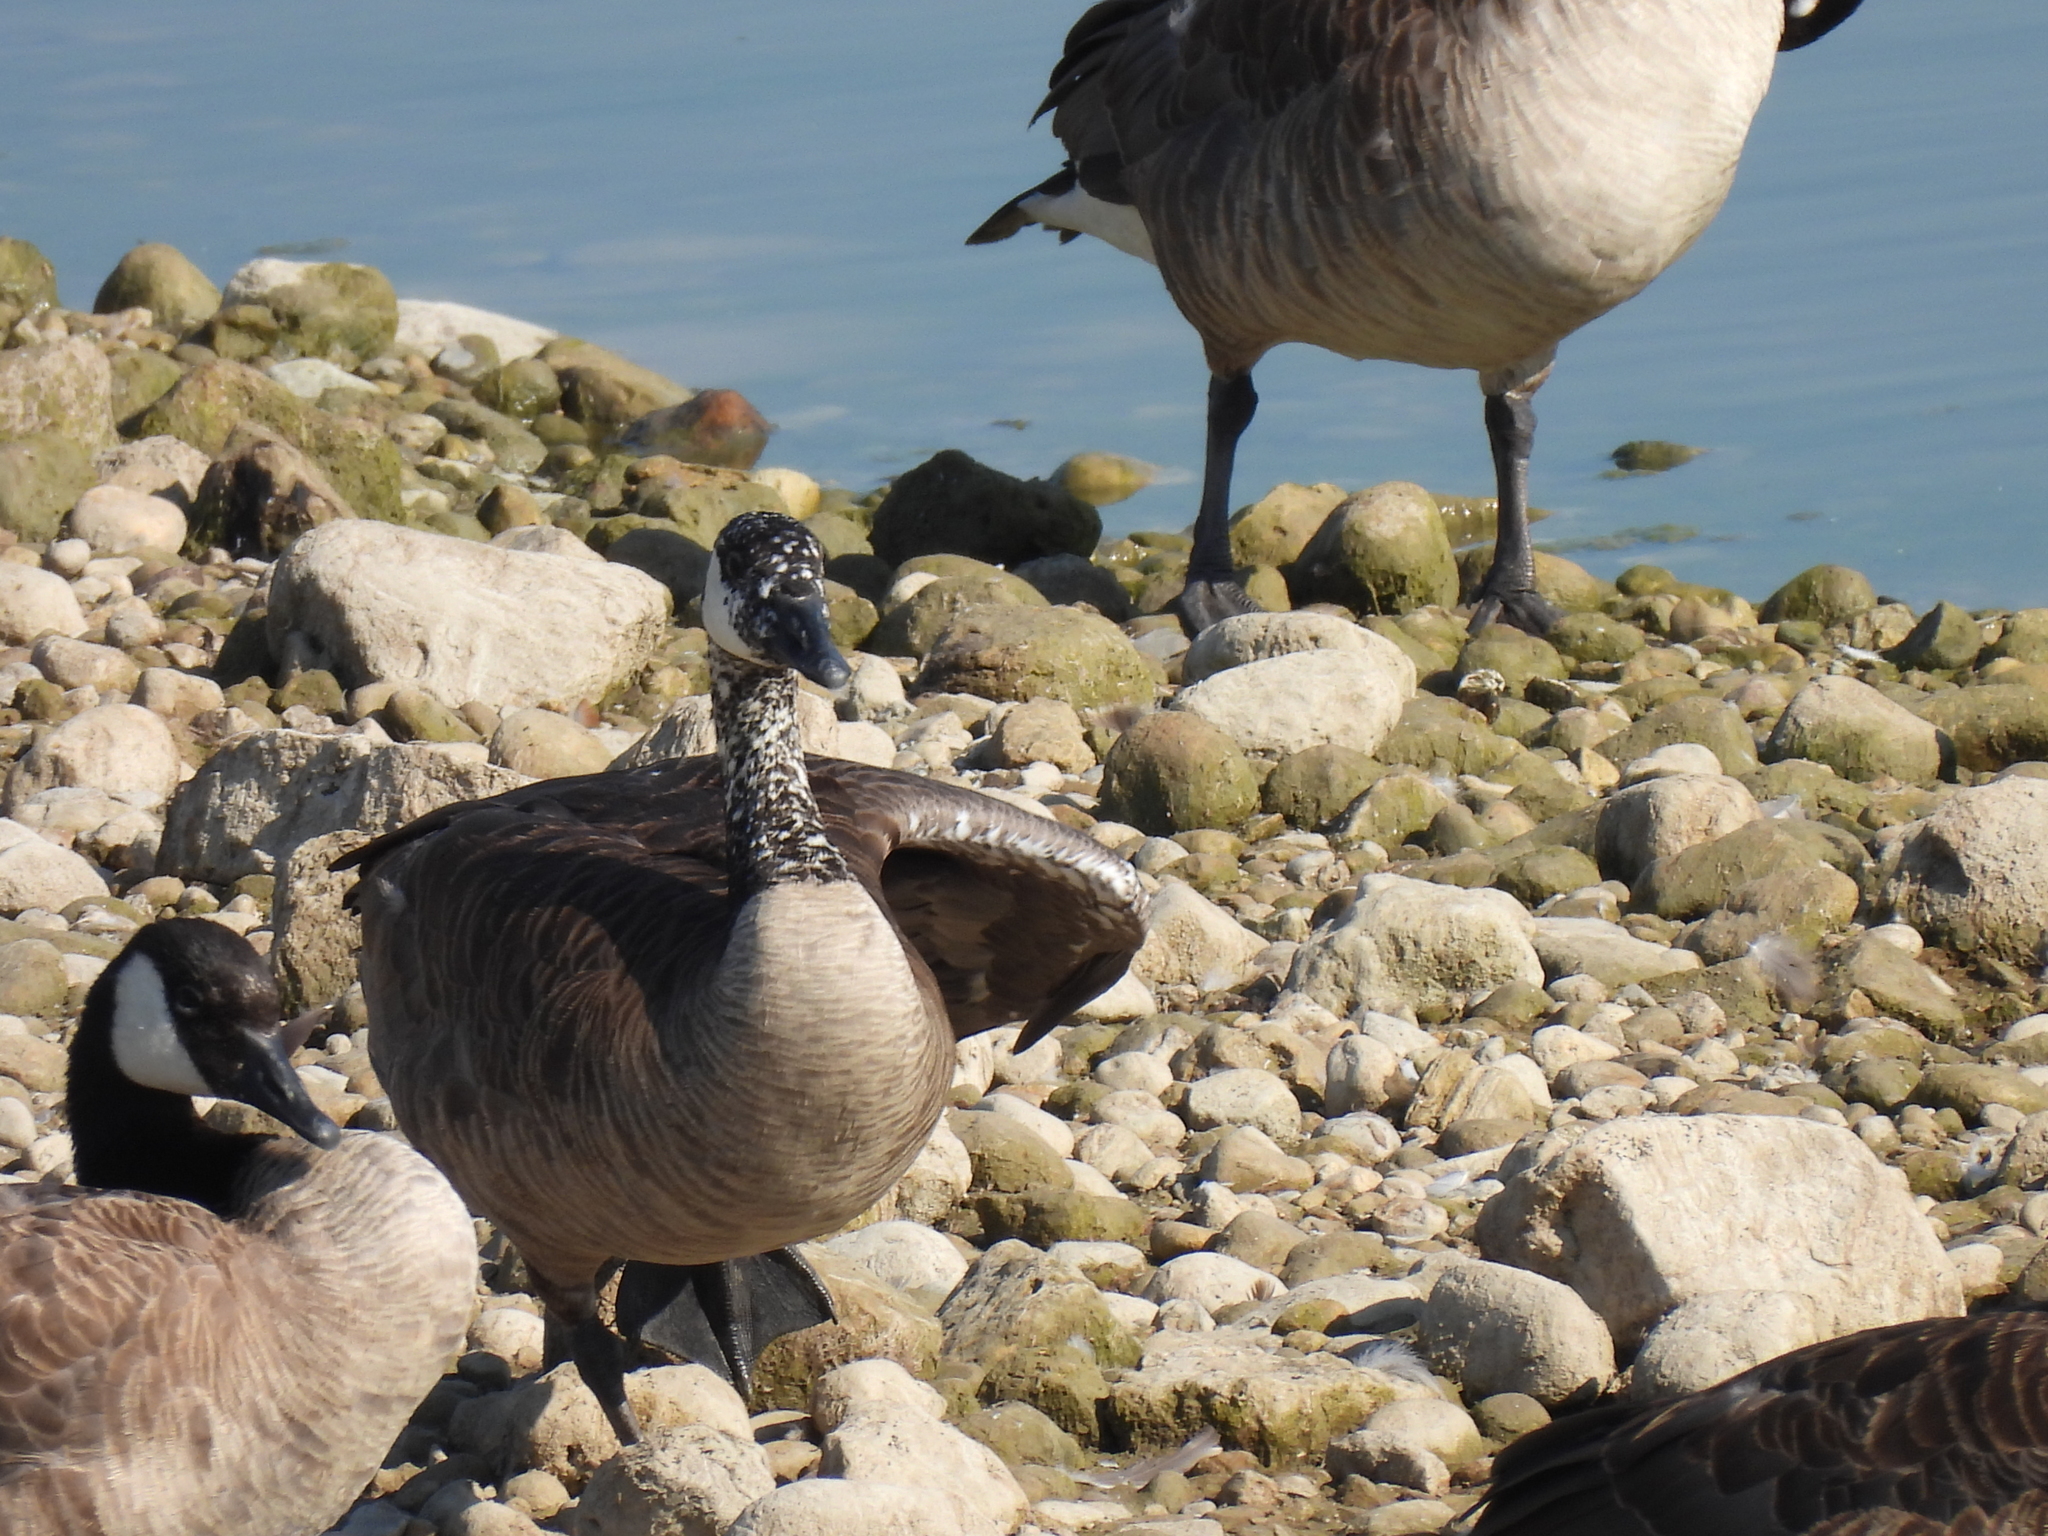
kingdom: Animalia
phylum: Chordata
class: Aves
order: Anseriformes
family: Anatidae
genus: Branta
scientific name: Branta canadensis
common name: Canada goose
